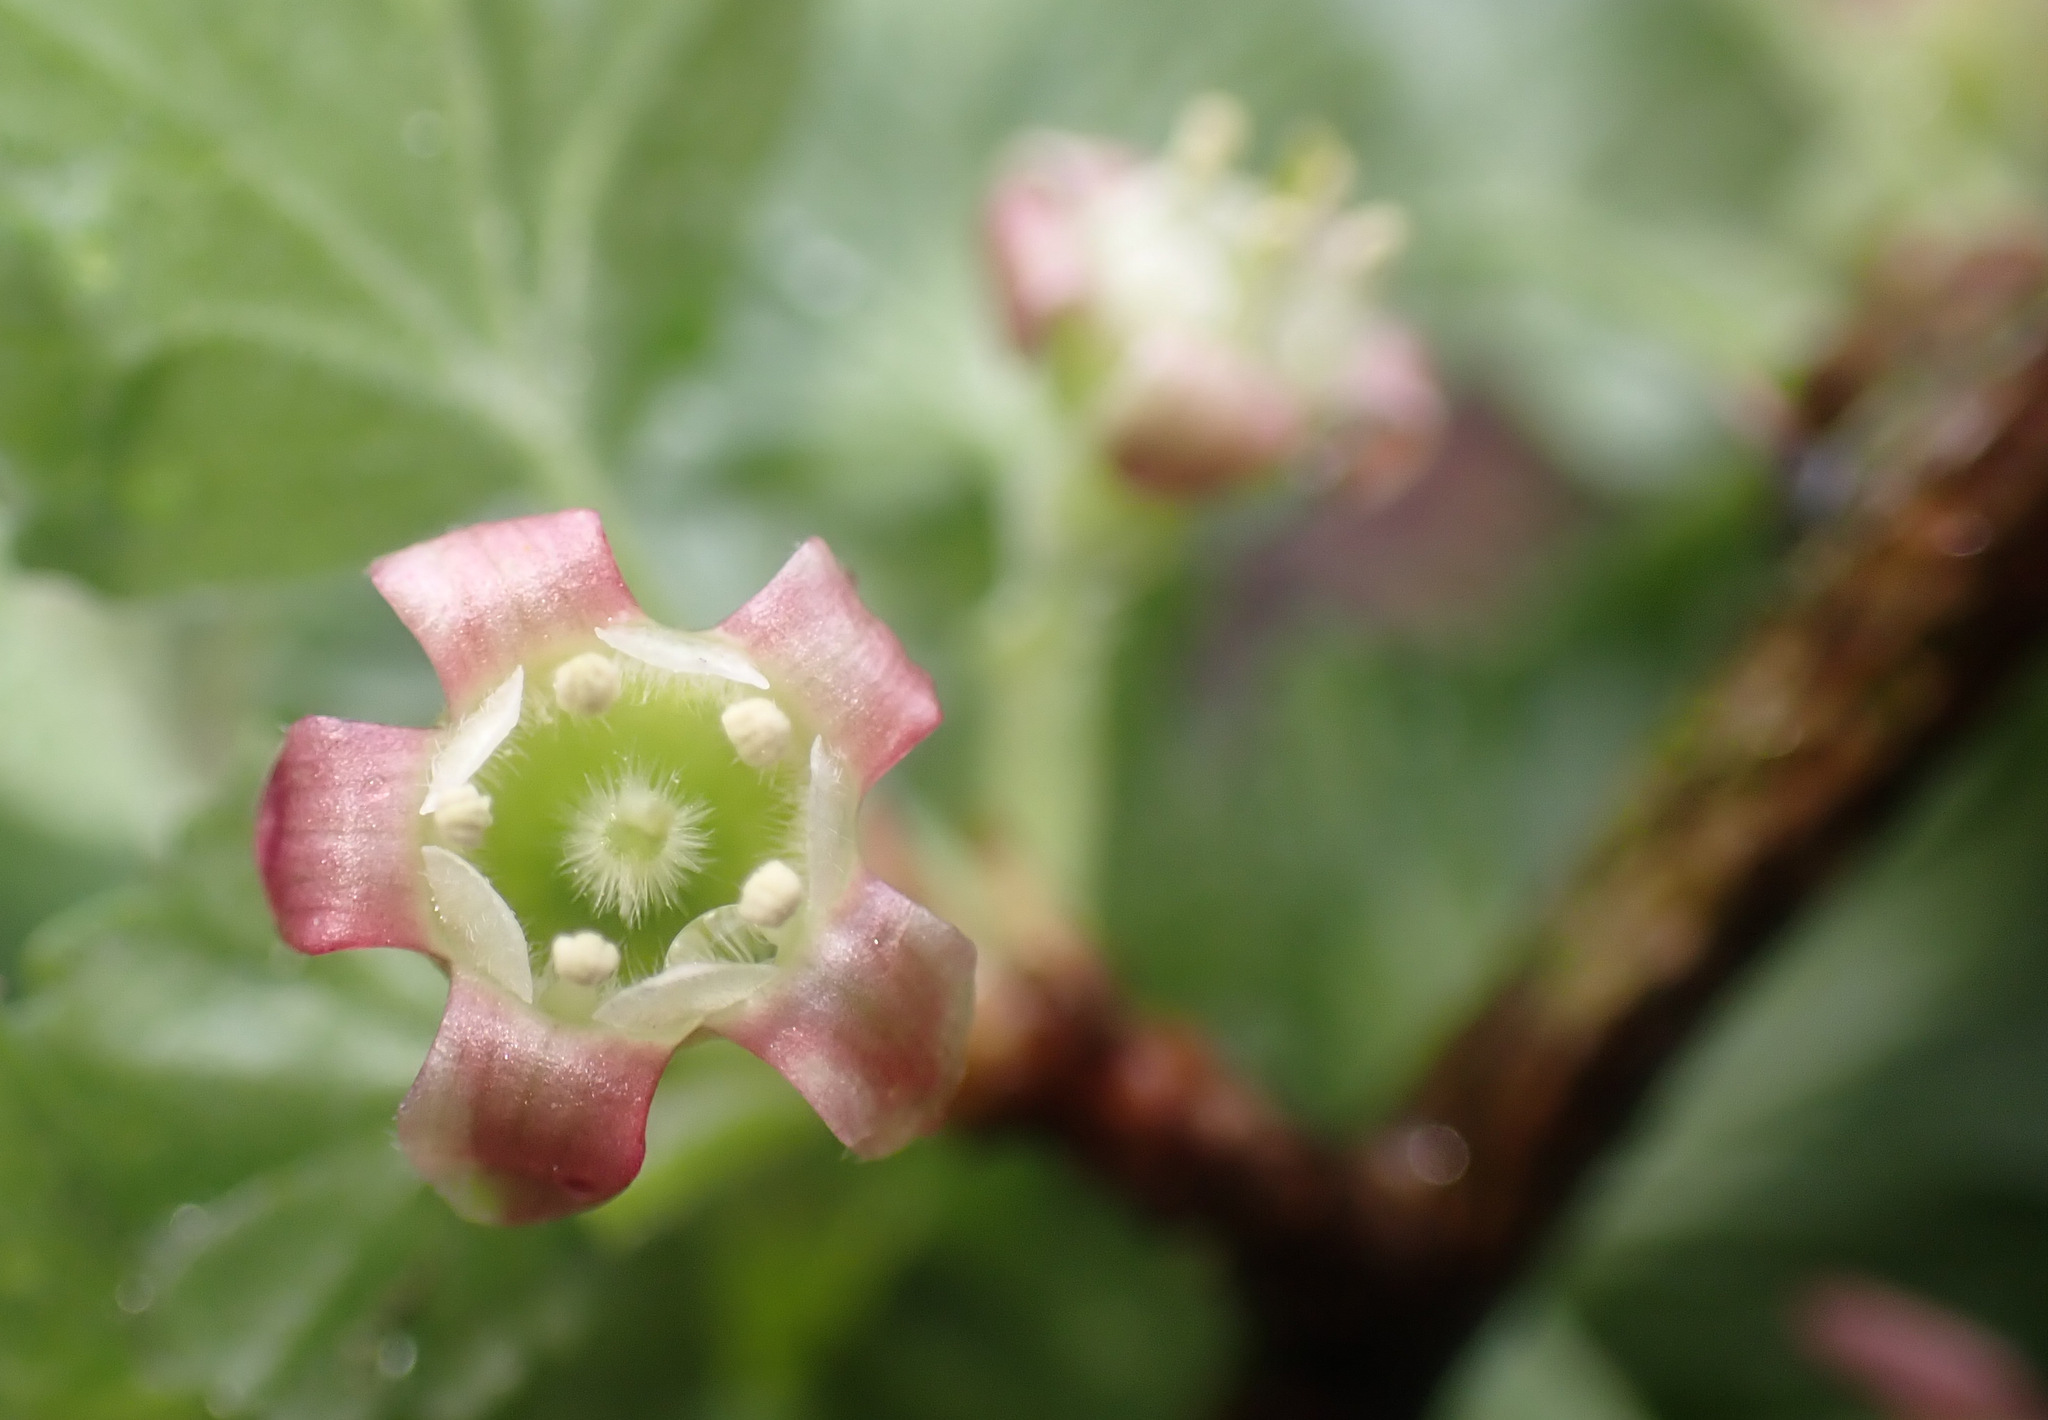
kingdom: Plantae
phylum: Tracheophyta
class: Magnoliopsida
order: Saxifragales
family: Grossulariaceae
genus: Ribes
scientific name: Ribes uva-crispa
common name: Gooseberry
